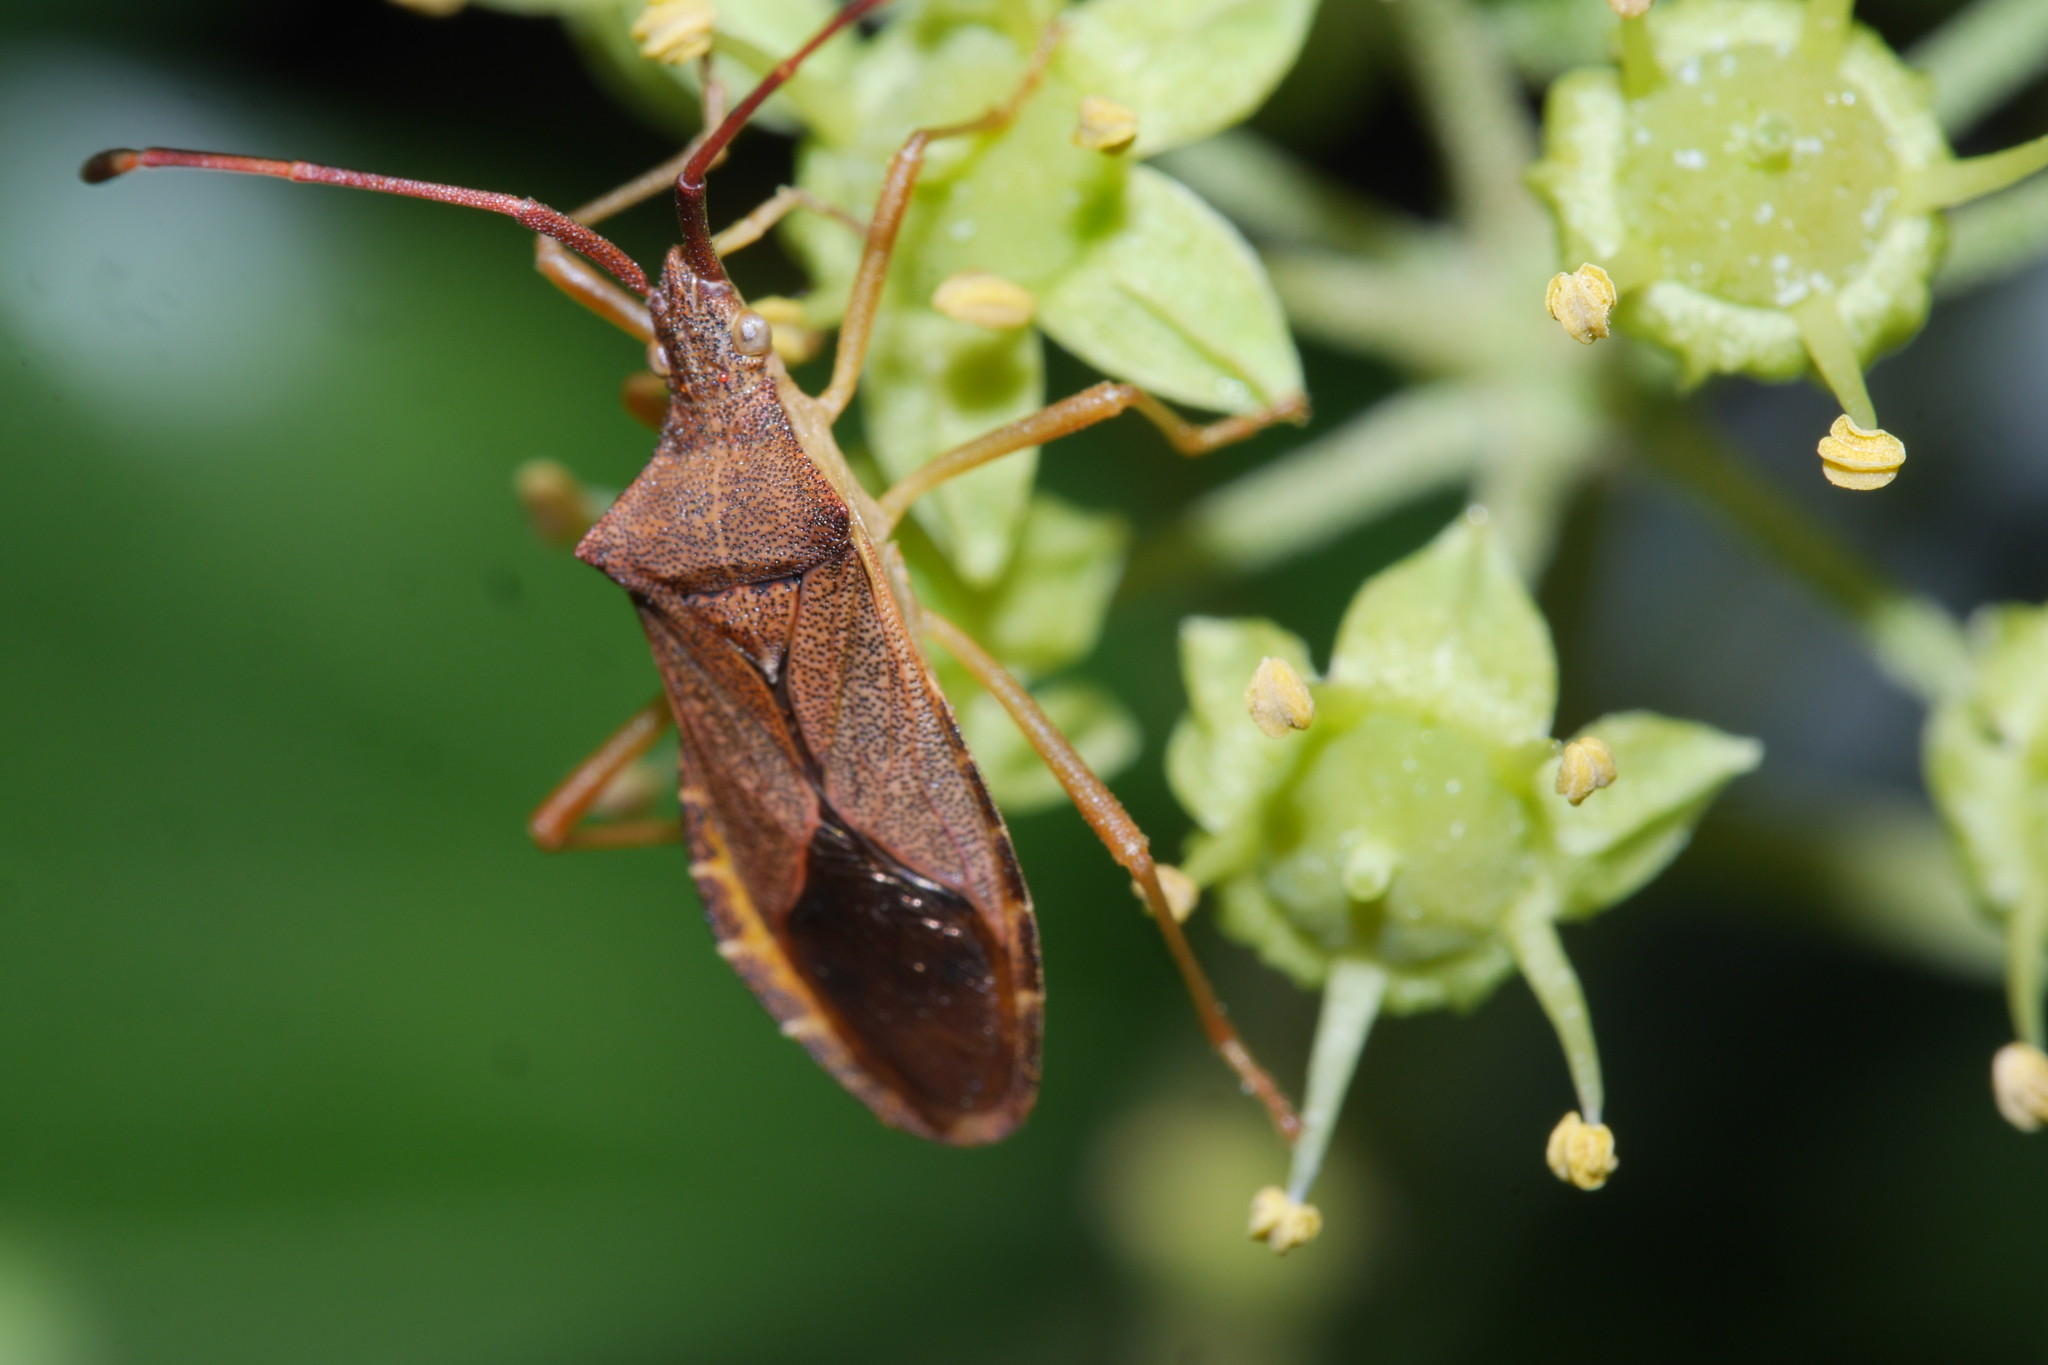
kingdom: Animalia
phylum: Arthropoda
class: Insecta
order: Hemiptera
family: Coreidae
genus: Gonocerus
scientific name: Gonocerus acuteangulatus
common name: Box bug
